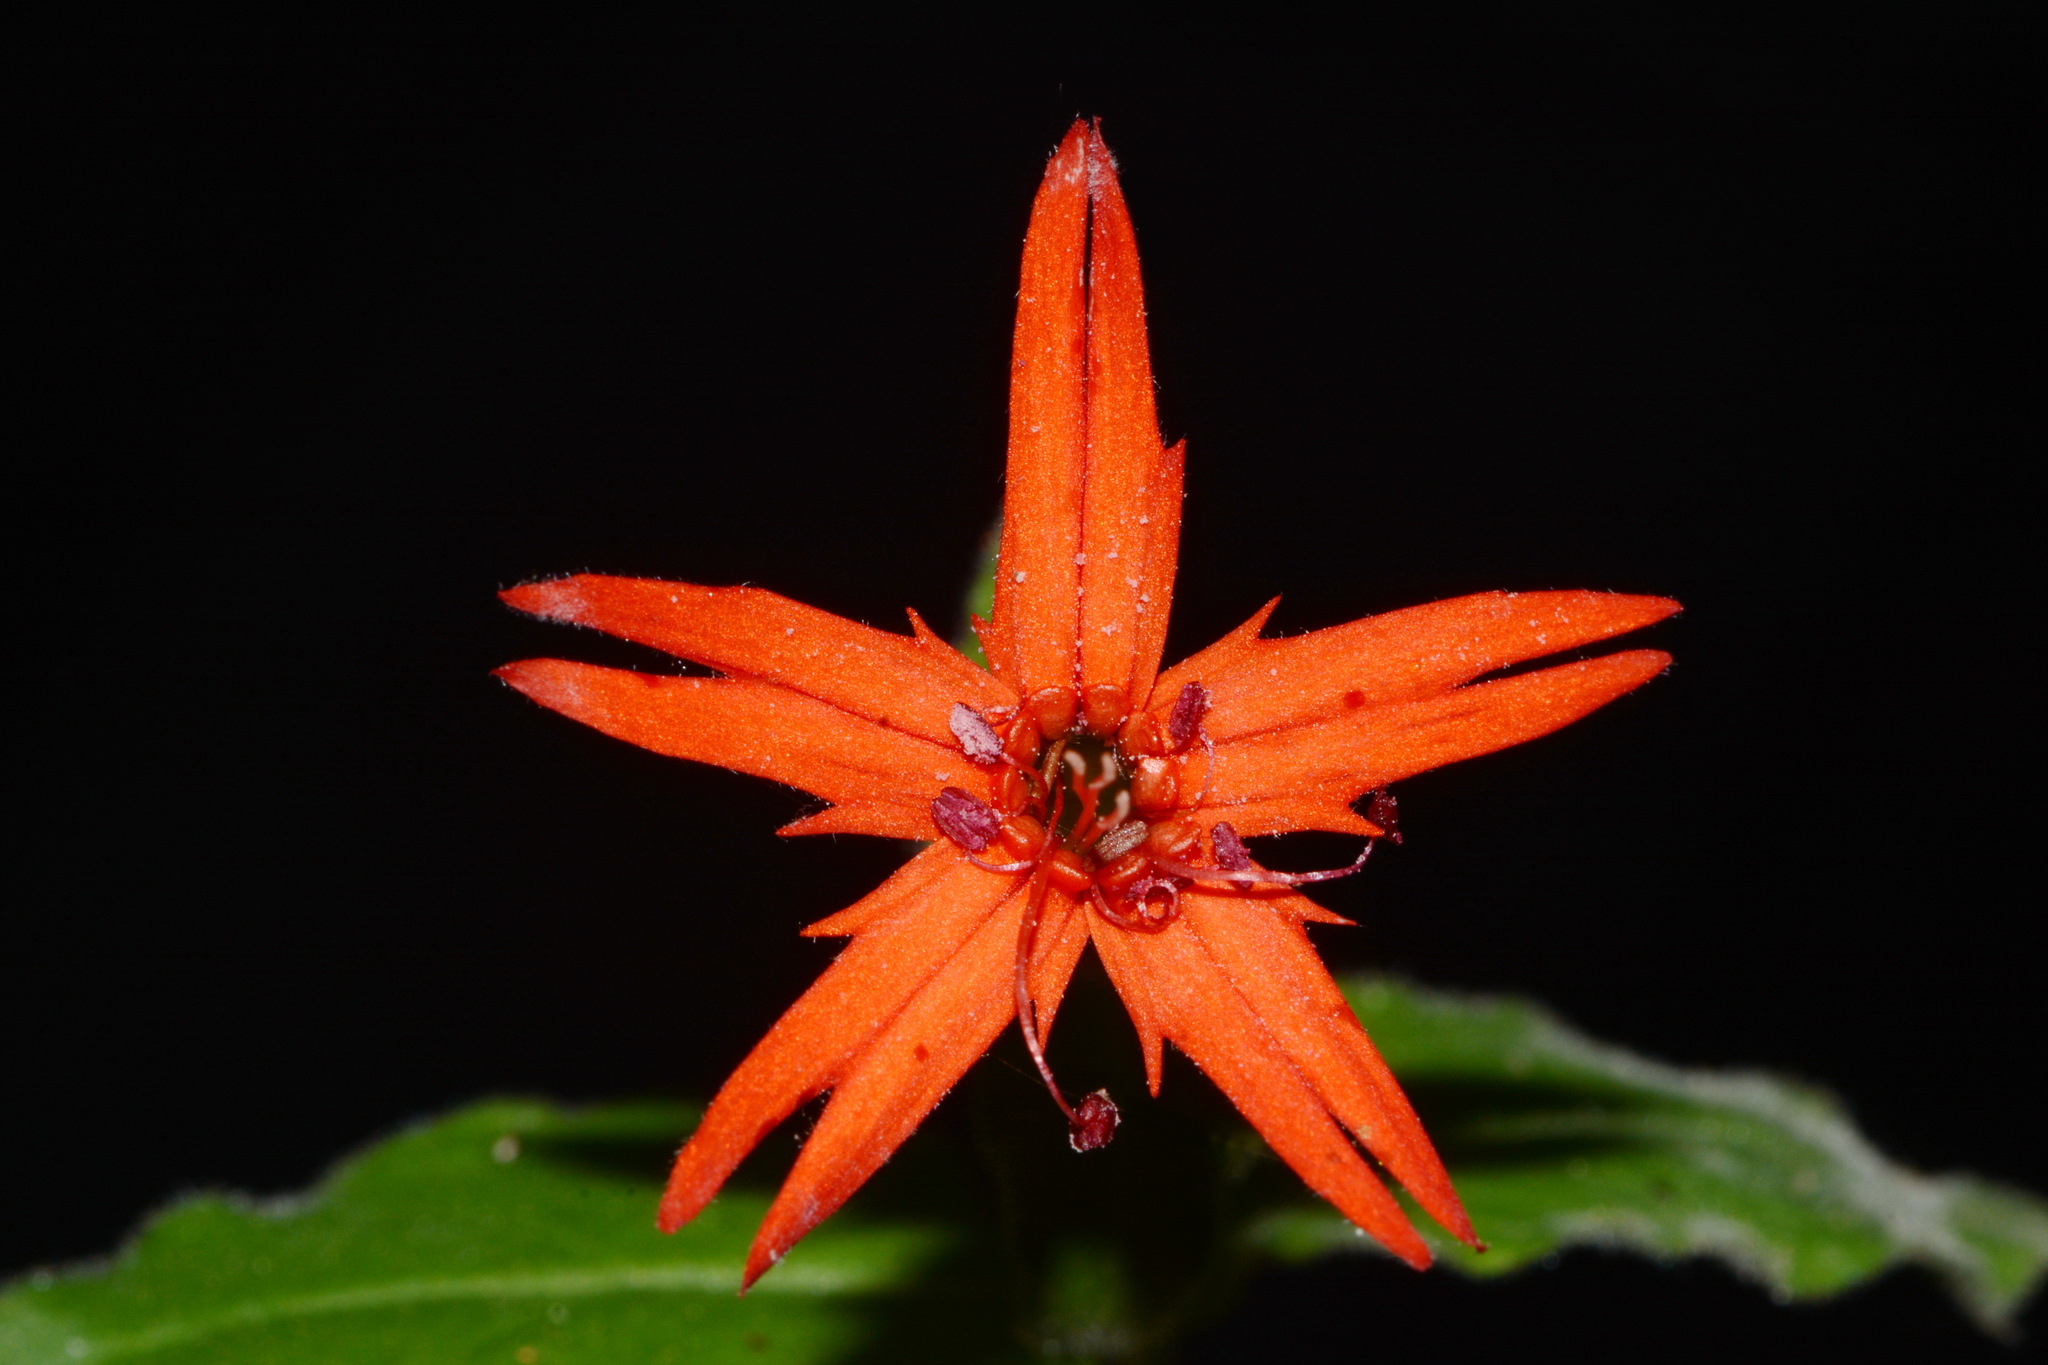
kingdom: Plantae
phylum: Tracheophyta
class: Magnoliopsida
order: Caryophyllales
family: Caryophyllaceae
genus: Silene
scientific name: Silene rotundifolia
